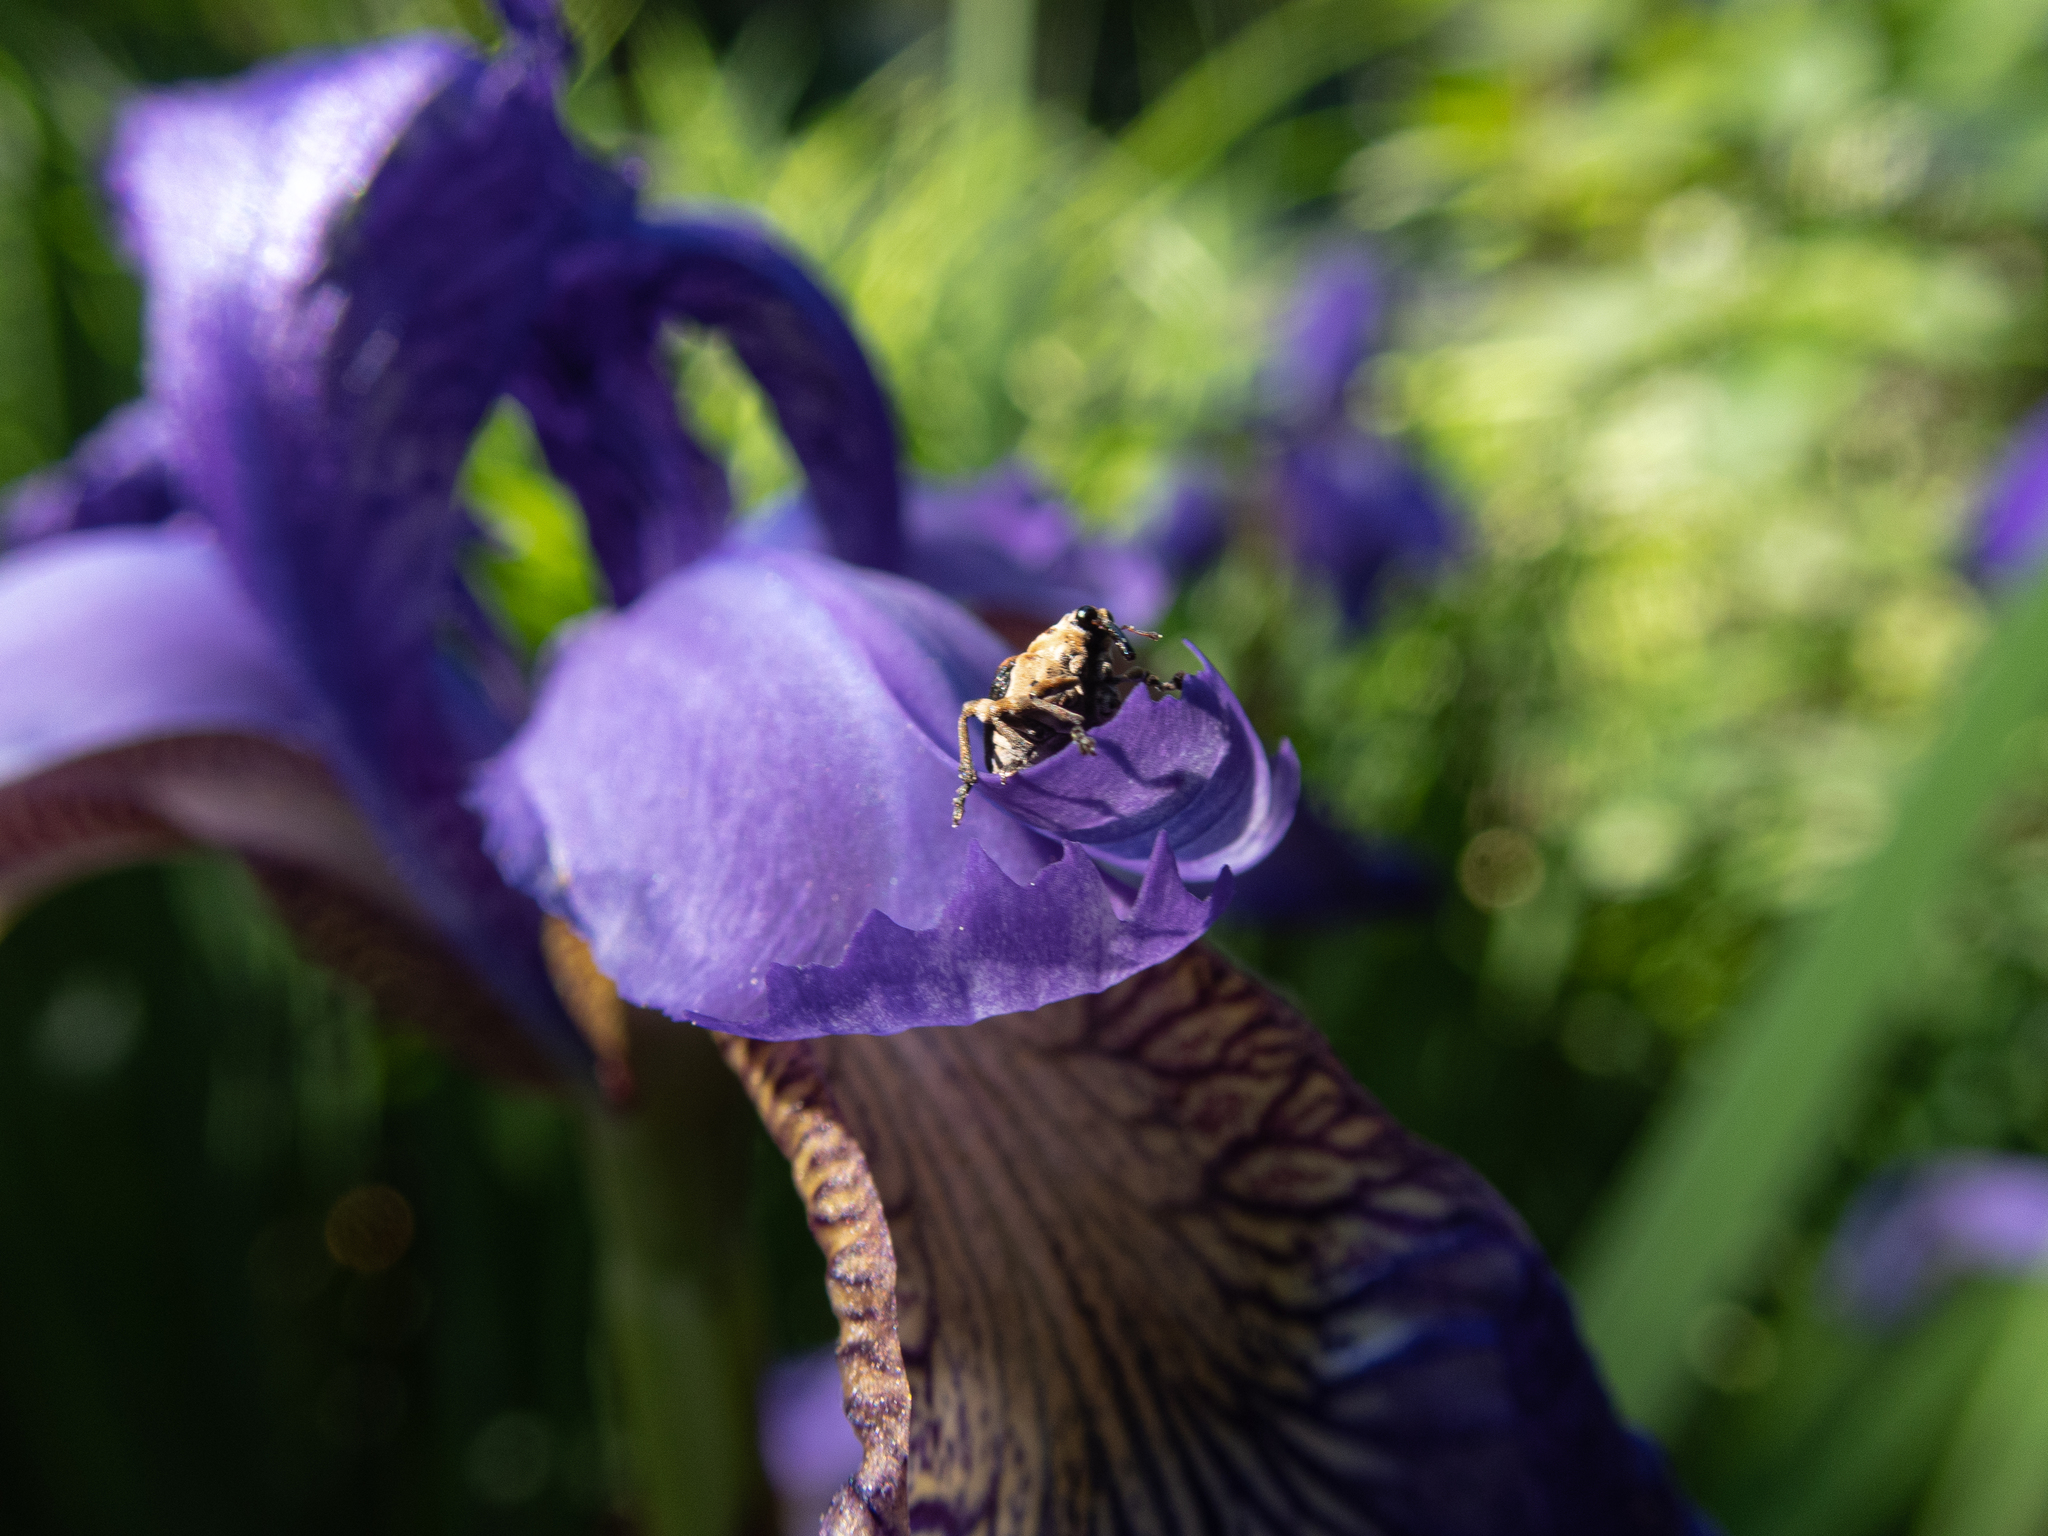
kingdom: Animalia
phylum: Arthropoda
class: Insecta
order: Coleoptera
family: Curculionidae
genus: Mononychus
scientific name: Mononychus vulpeculus
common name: Iris weevil
